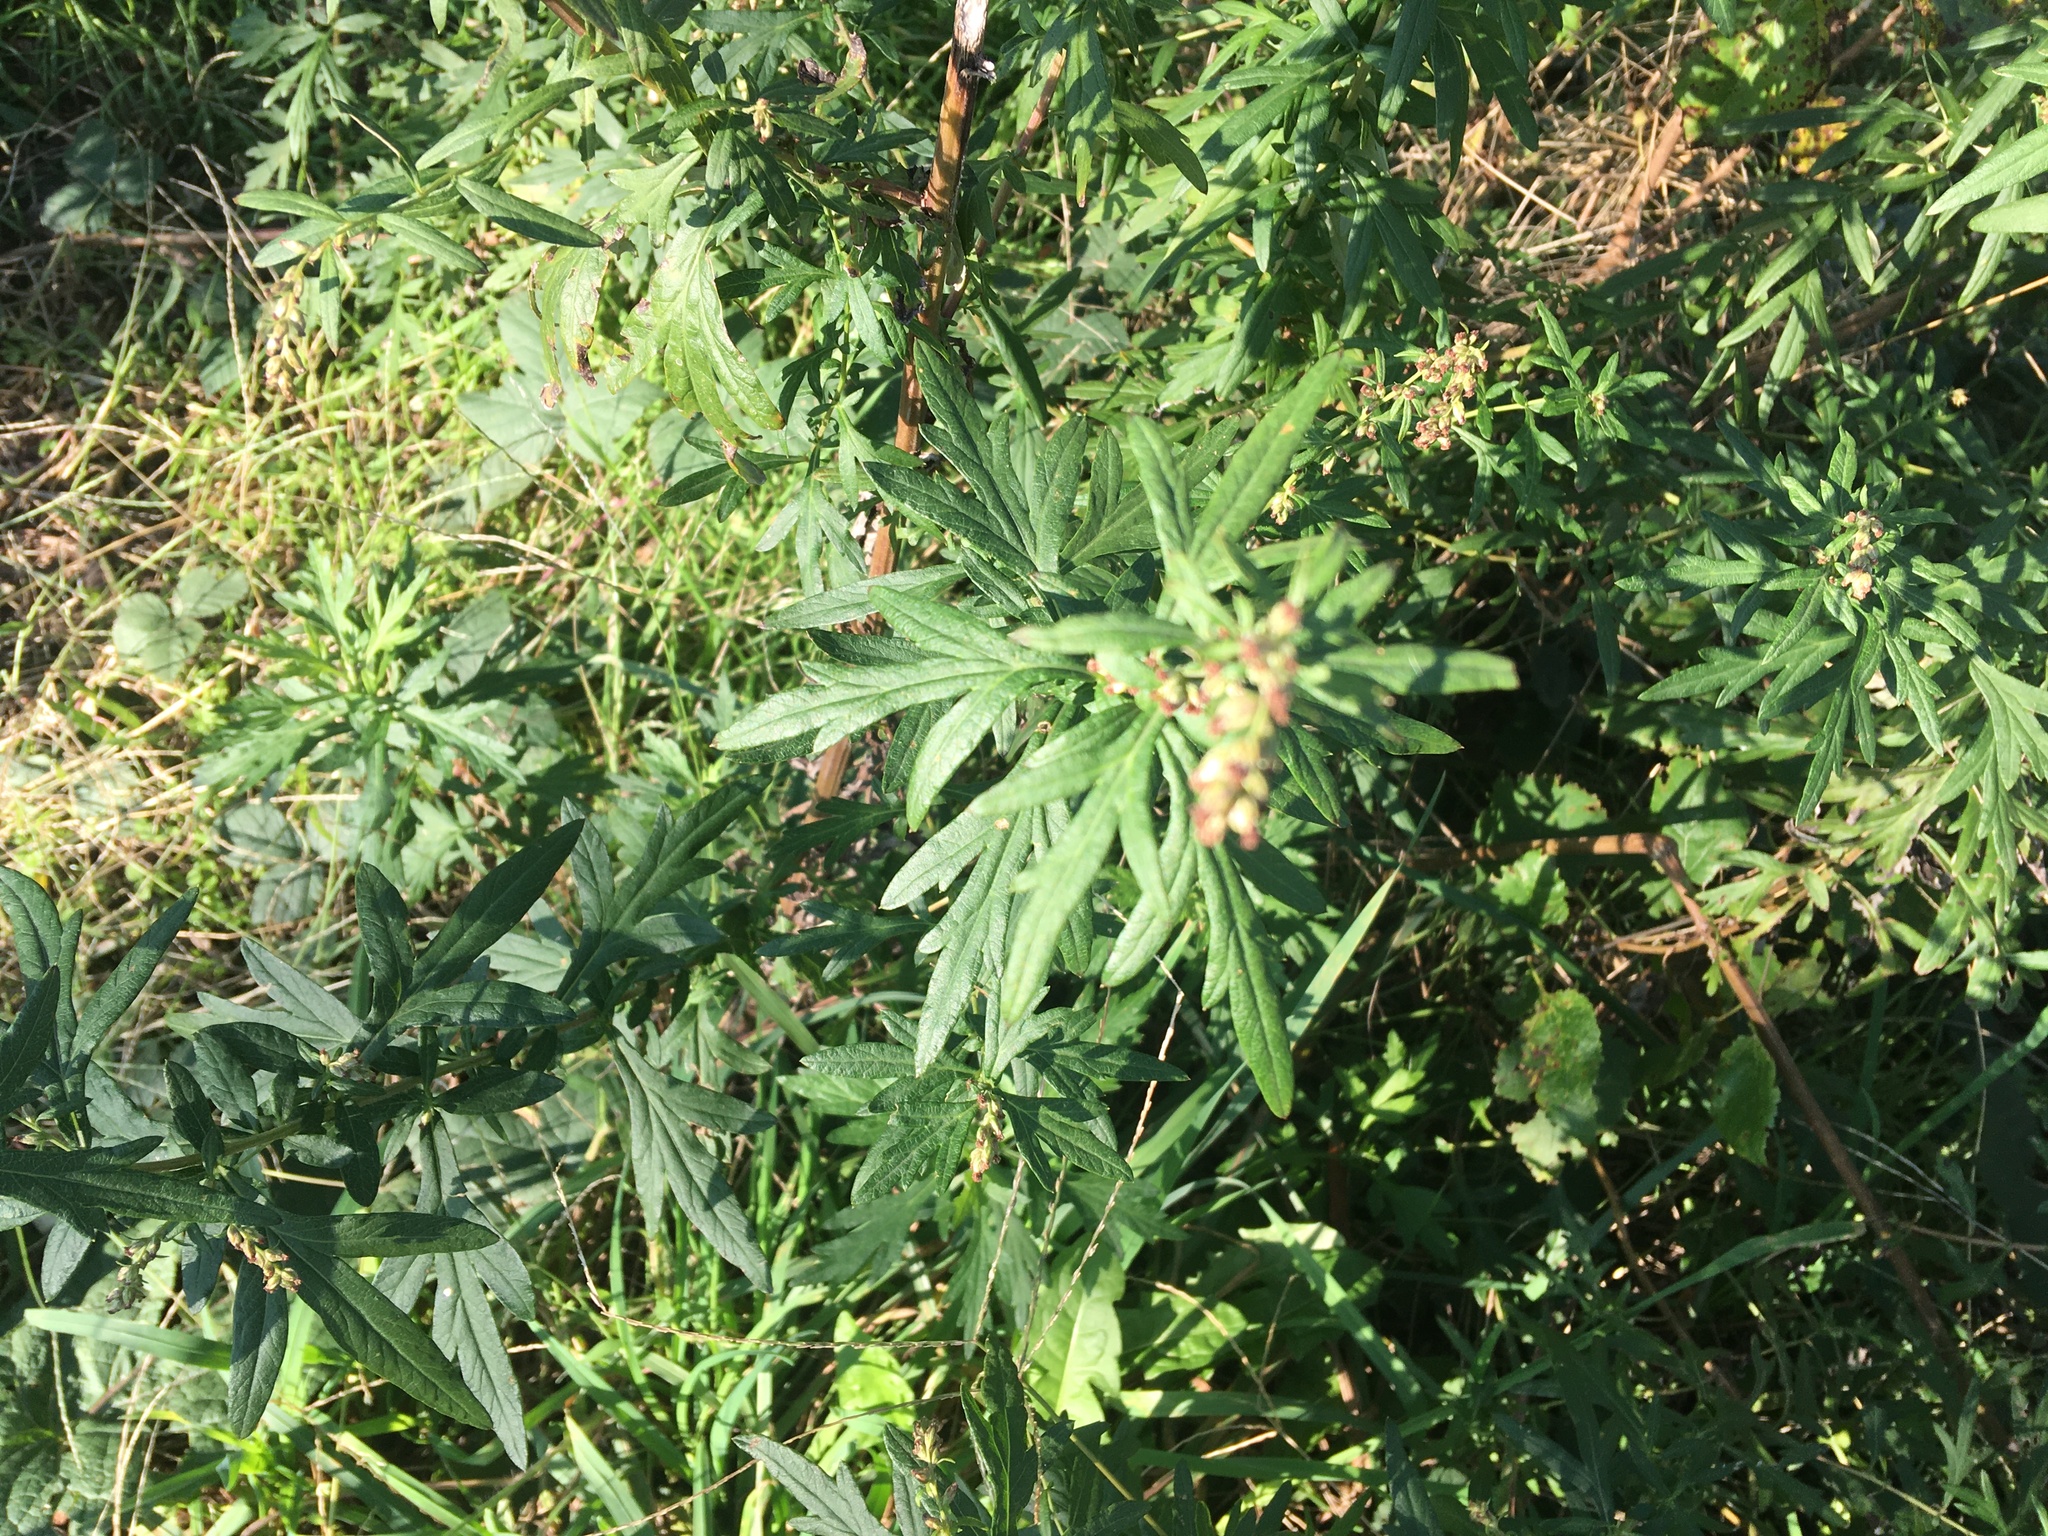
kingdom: Plantae
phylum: Tracheophyta
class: Magnoliopsida
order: Asterales
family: Asteraceae
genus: Artemisia
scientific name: Artemisia vulgaris
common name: Mugwort
